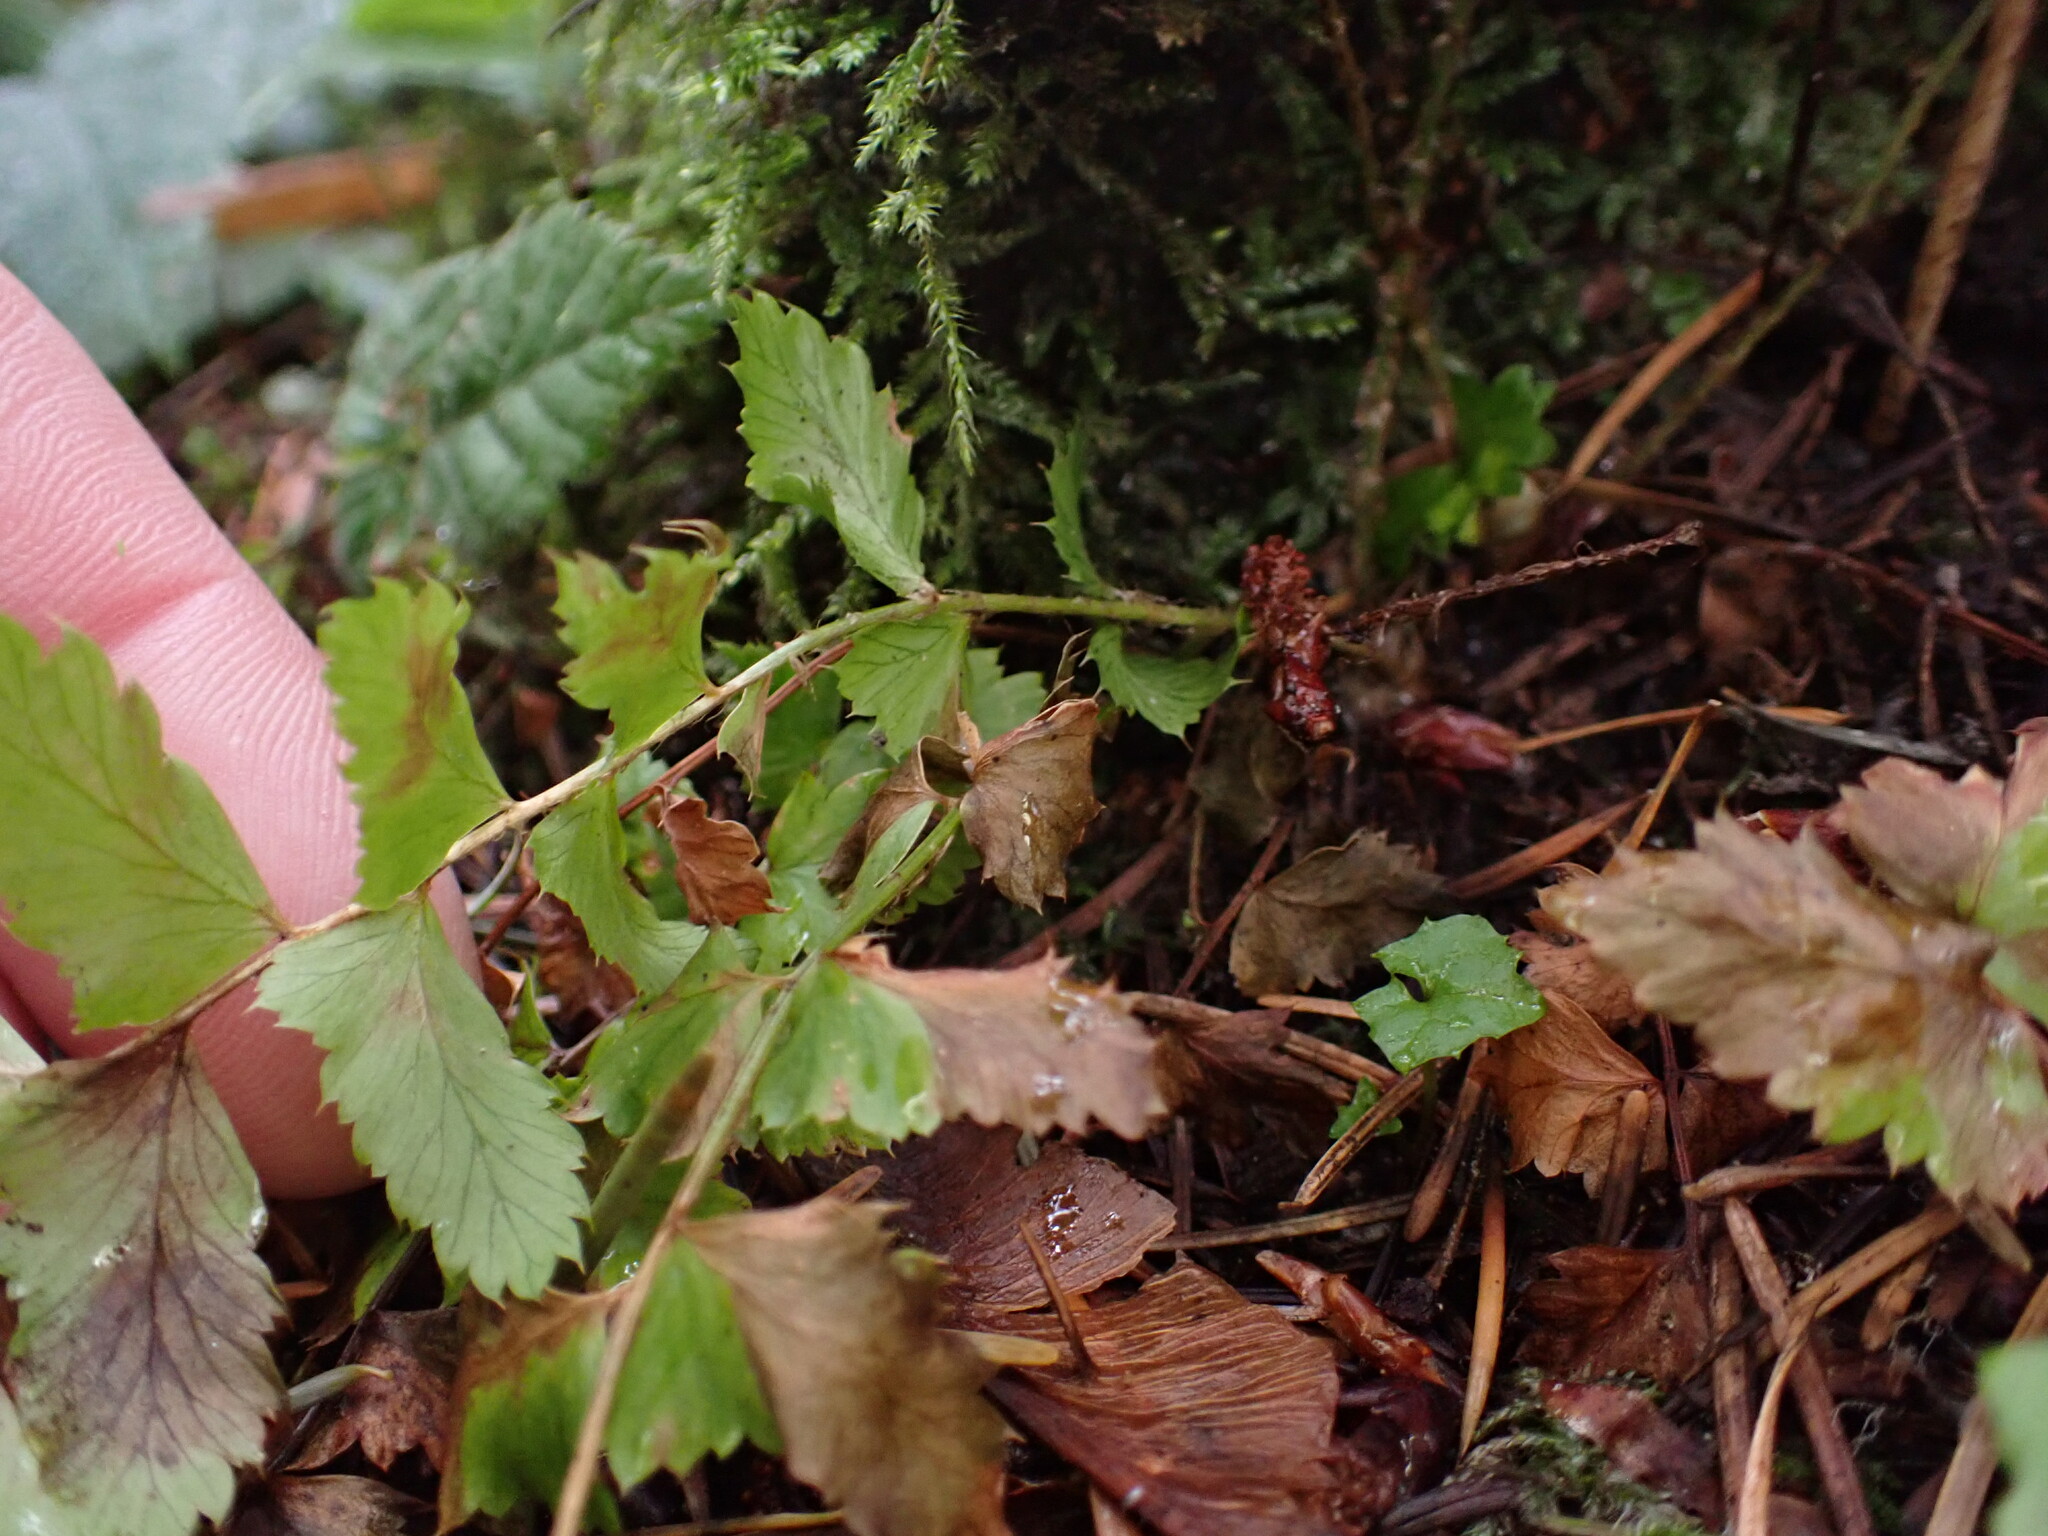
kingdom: Plantae
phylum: Tracheophyta
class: Polypodiopsida
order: Polypodiales
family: Dryopteridaceae
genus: Polystichum
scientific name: Polystichum munitum
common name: Western sword-fern
